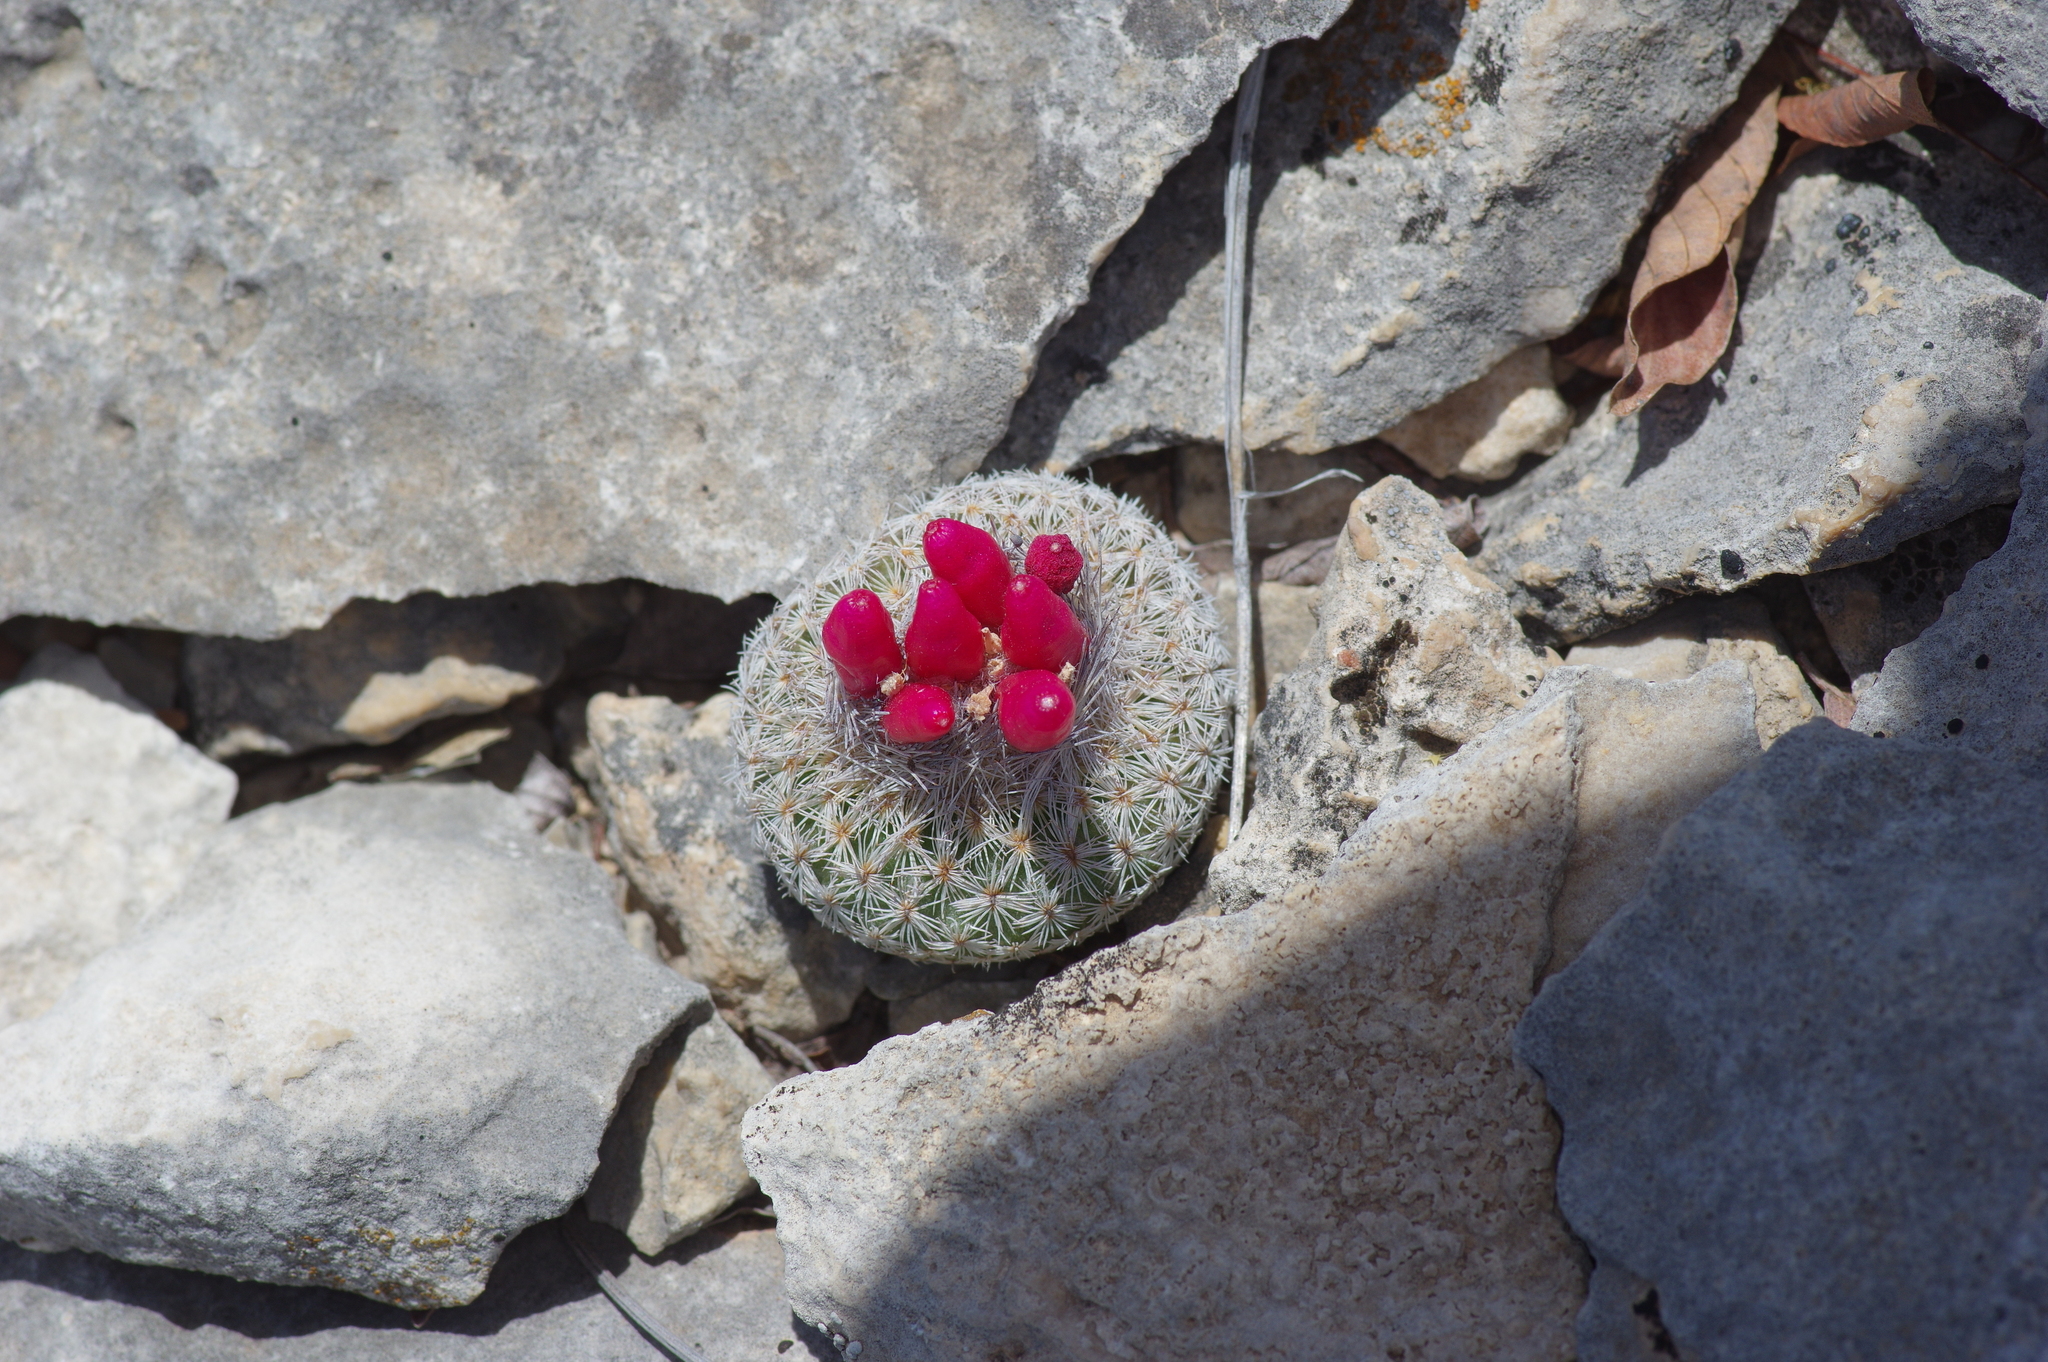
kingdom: Plantae
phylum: Tracheophyta
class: Magnoliopsida
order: Caryophyllales
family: Cactaceae
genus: Epithelantha
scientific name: Epithelantha micromeris
